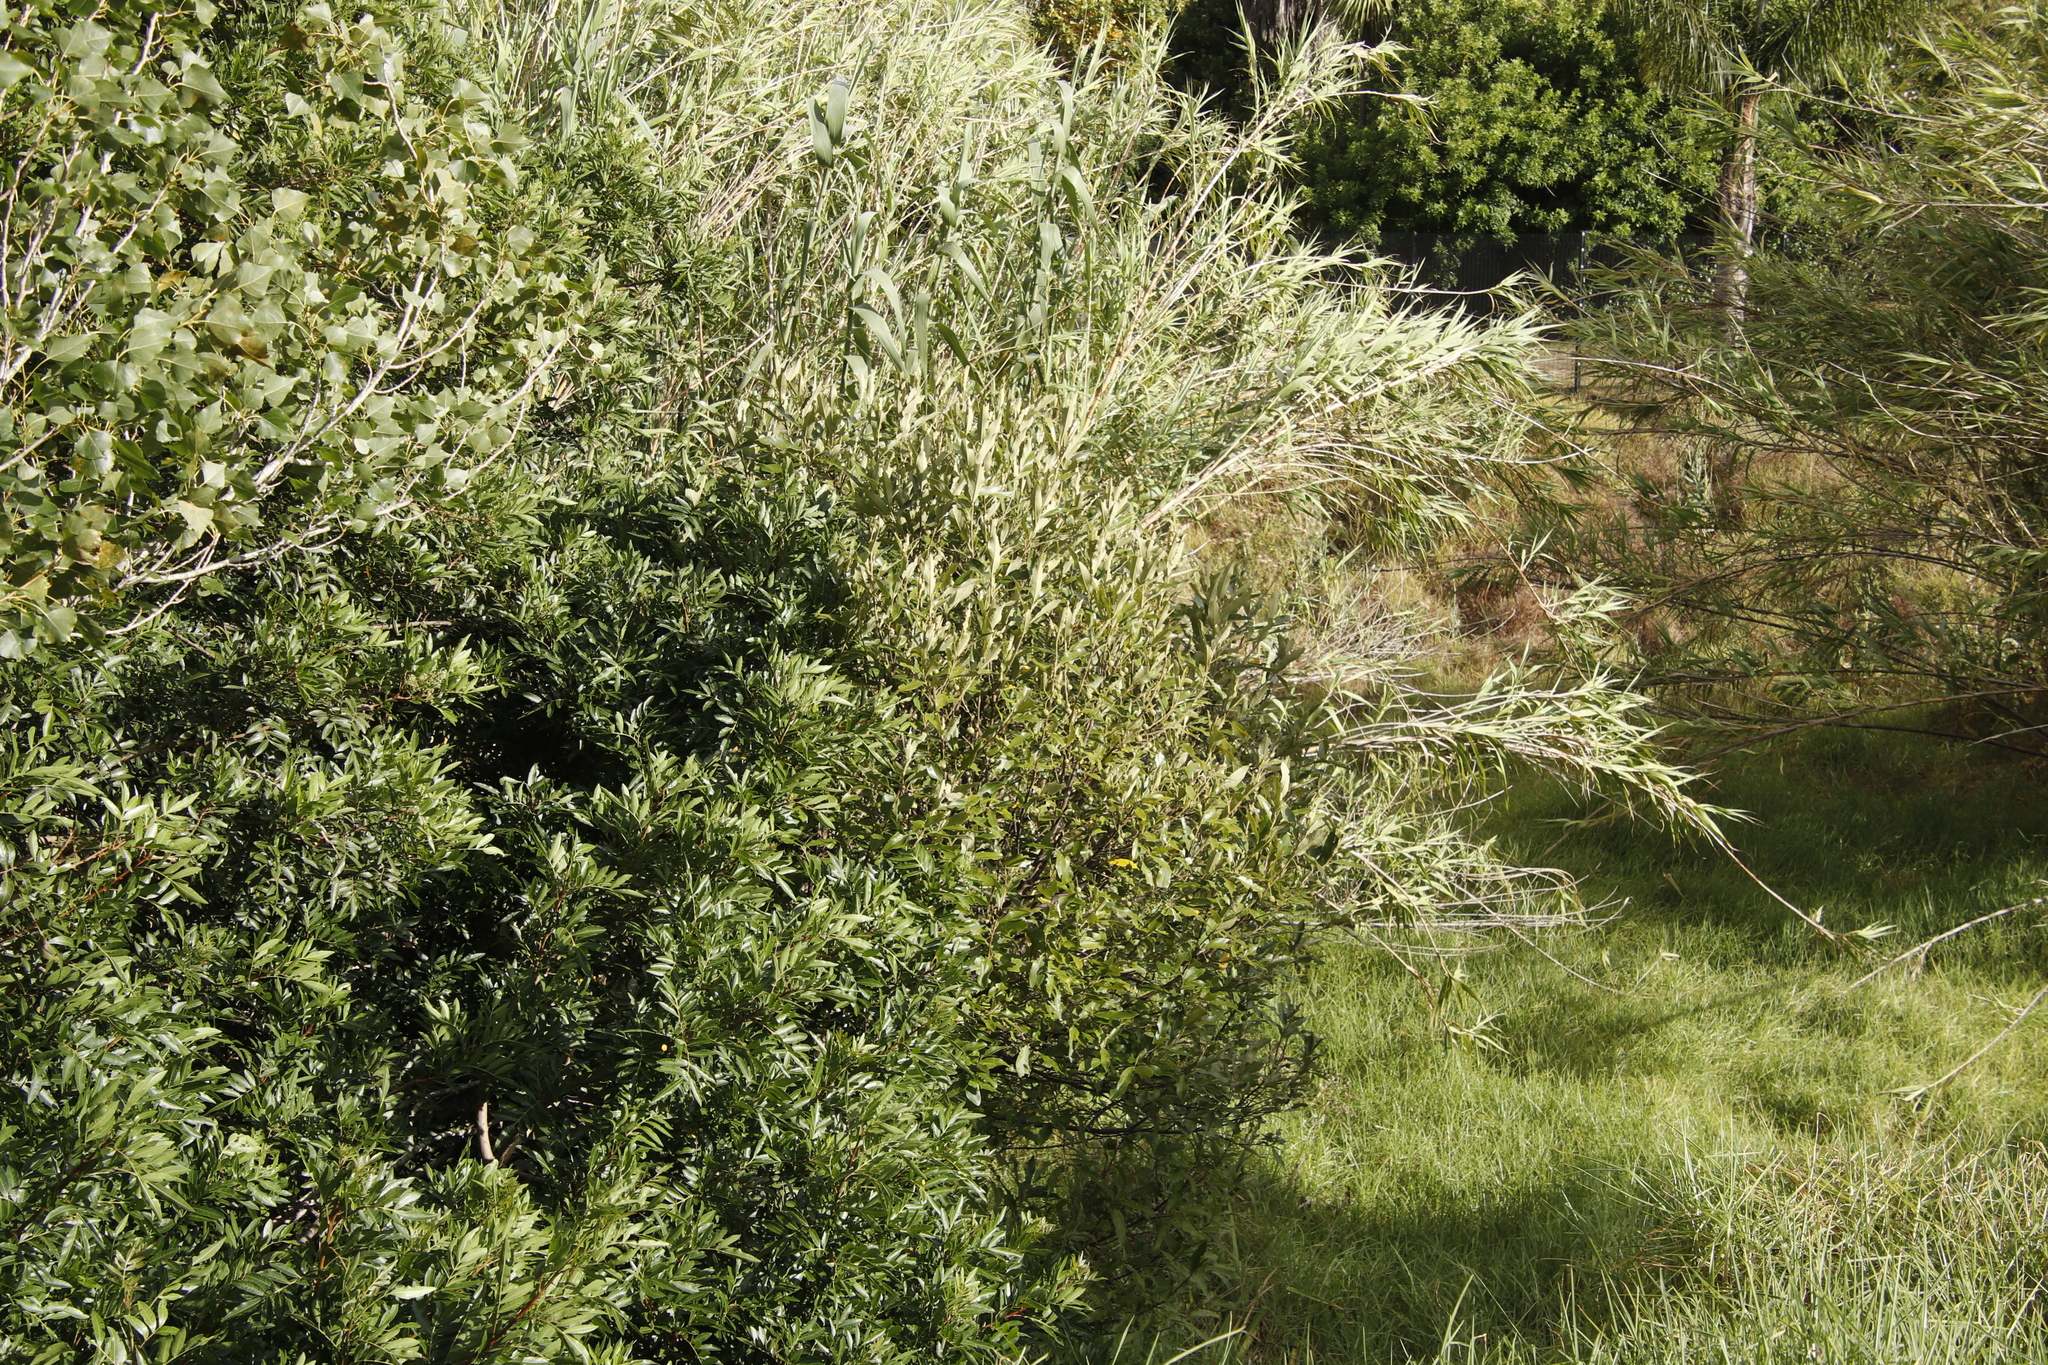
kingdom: Plantae
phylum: Tracheophyta
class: Liliopsida
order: Poales
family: Poaceae
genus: Arundo
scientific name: Arundo donax
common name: Giant reed
